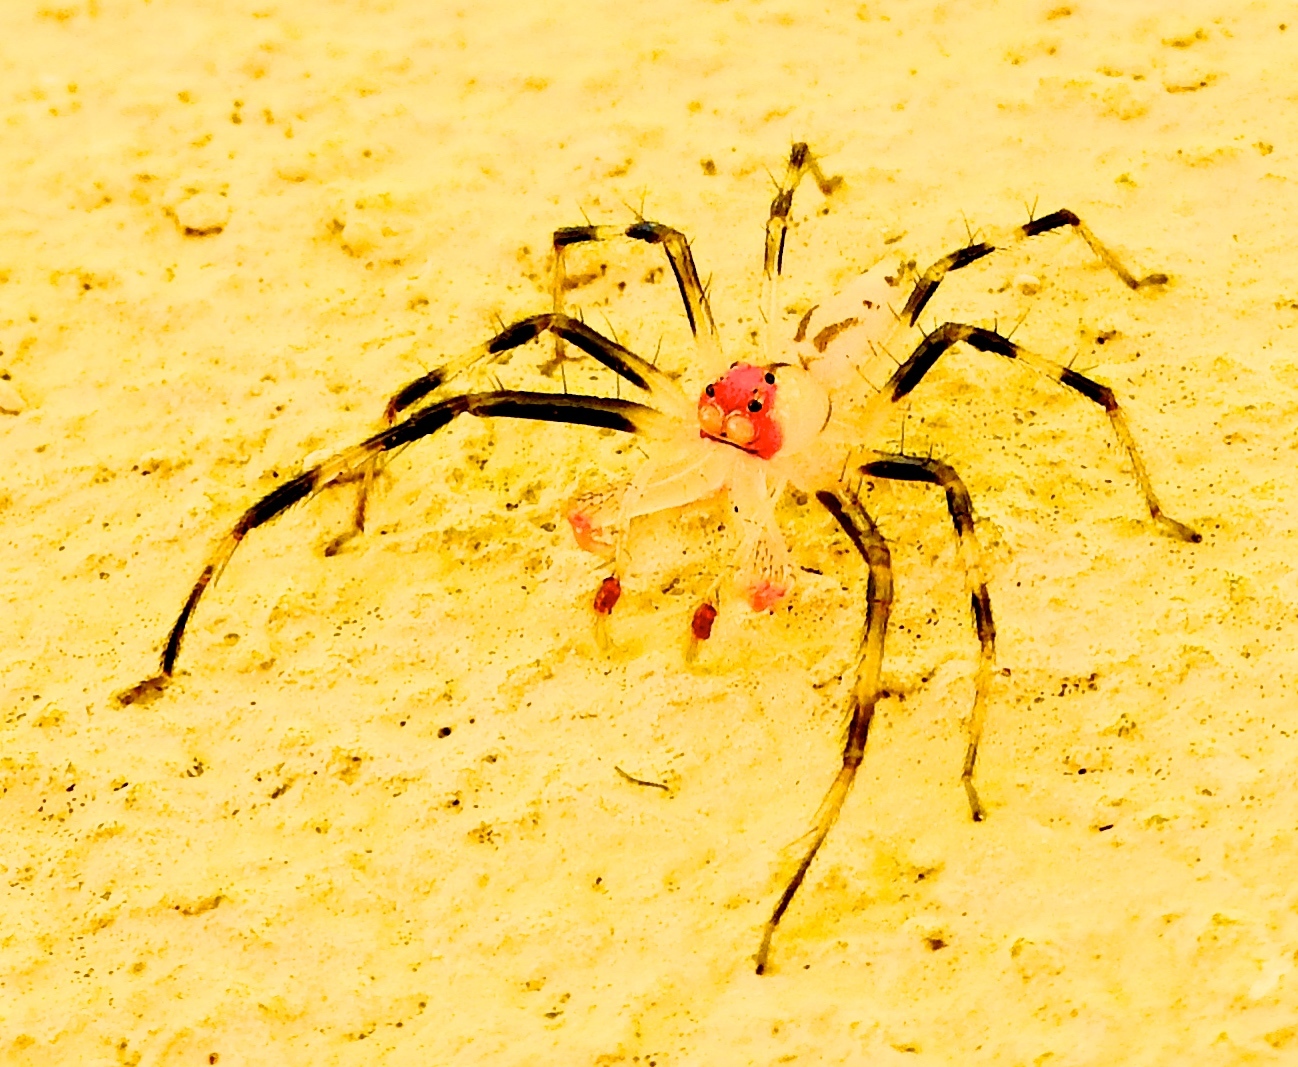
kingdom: Animalia
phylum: Arthropoda
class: Arachnida
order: Araneae
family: Salticidae
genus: Lyssomanes
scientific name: Lyssomanes
